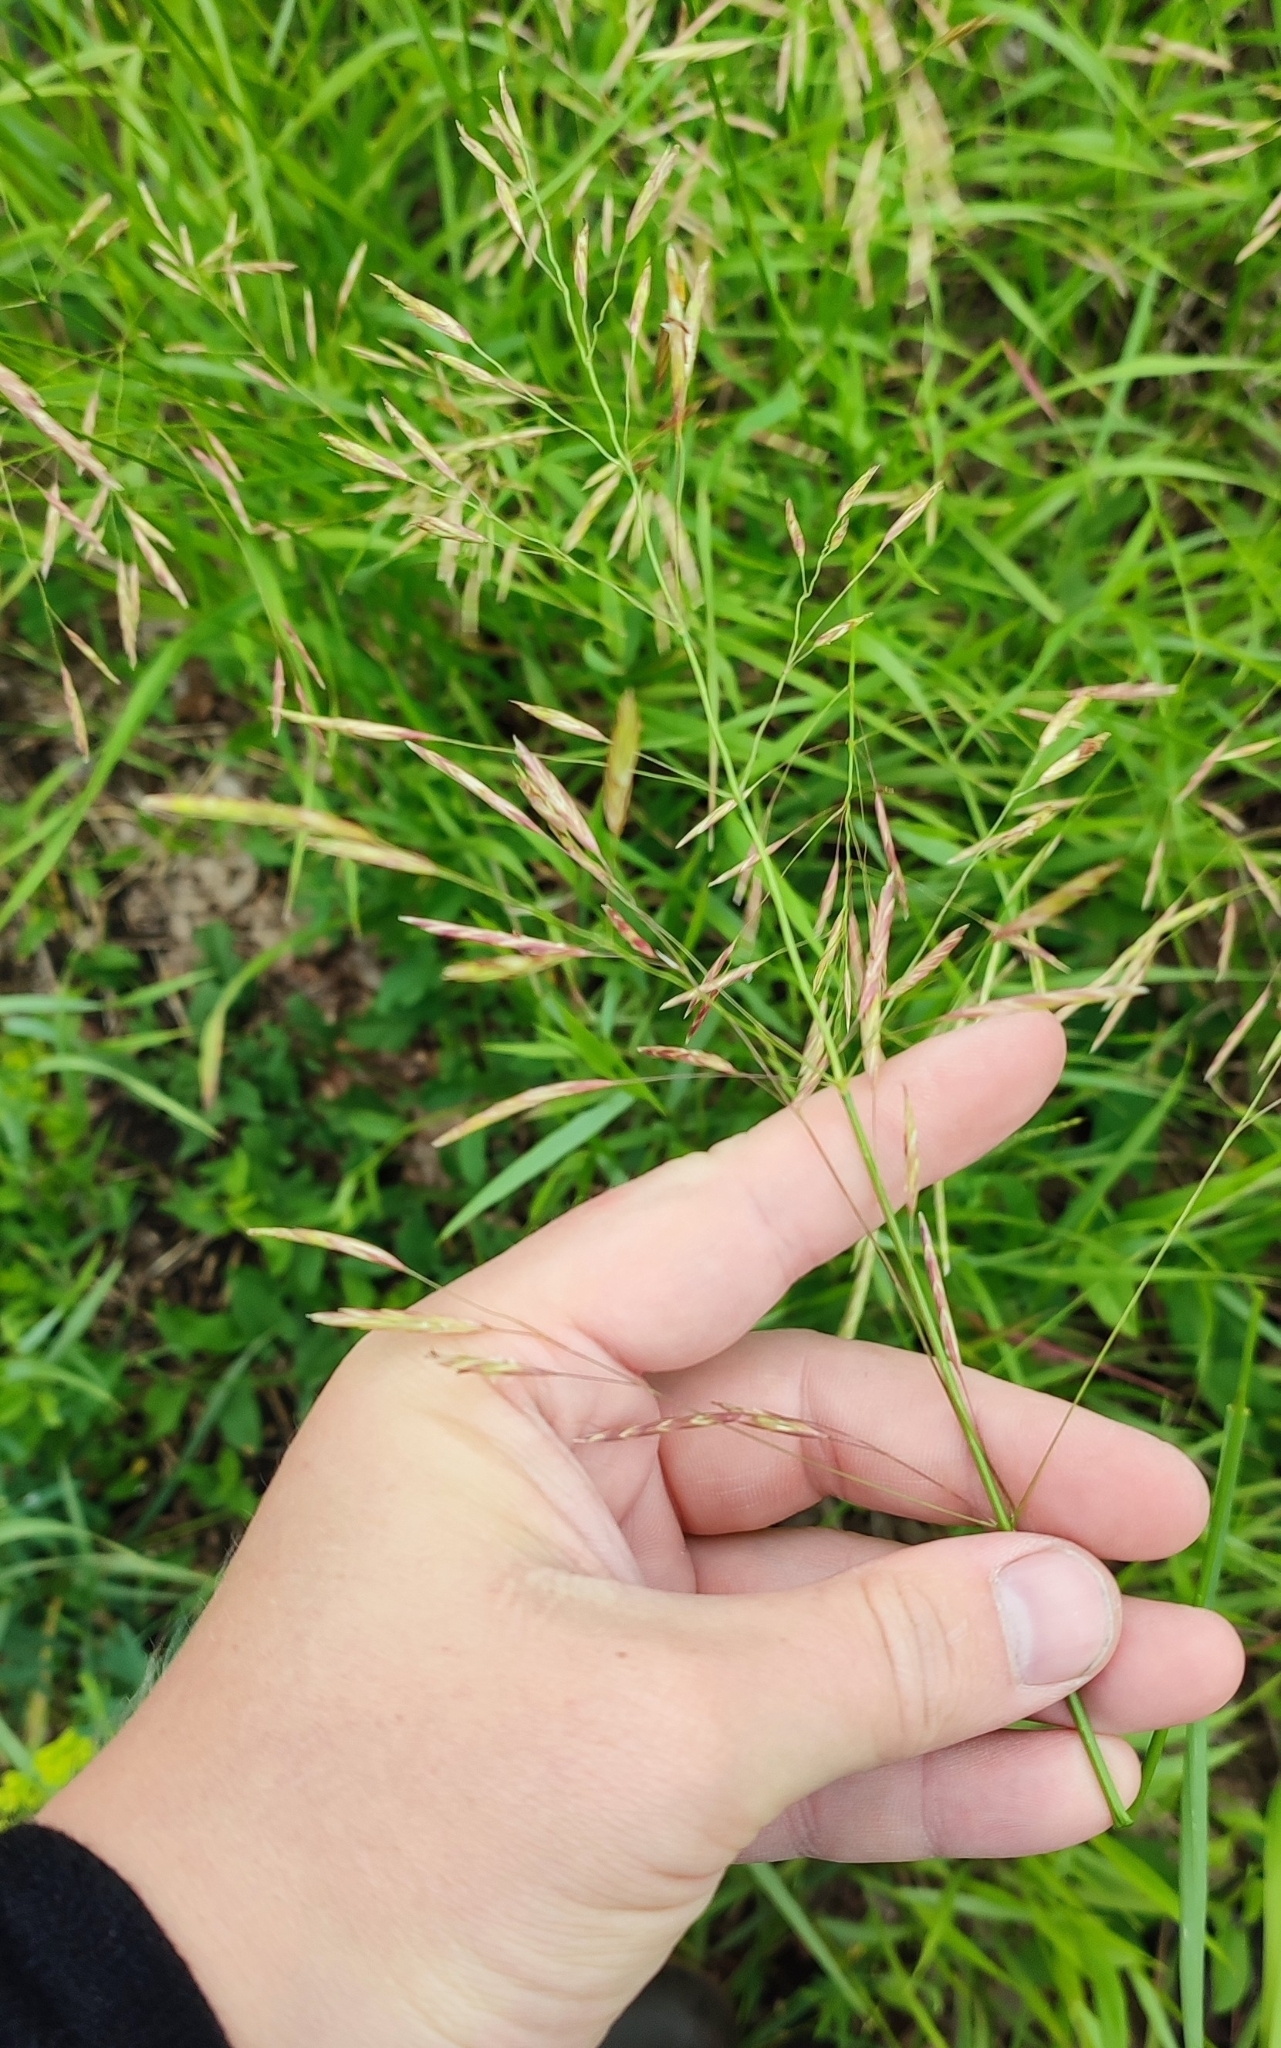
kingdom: Plantae
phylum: Tracheophyta
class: Liliopsida
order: Poales
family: Poaceae
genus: Bromus
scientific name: Bromus inermis
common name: Smooth brome
